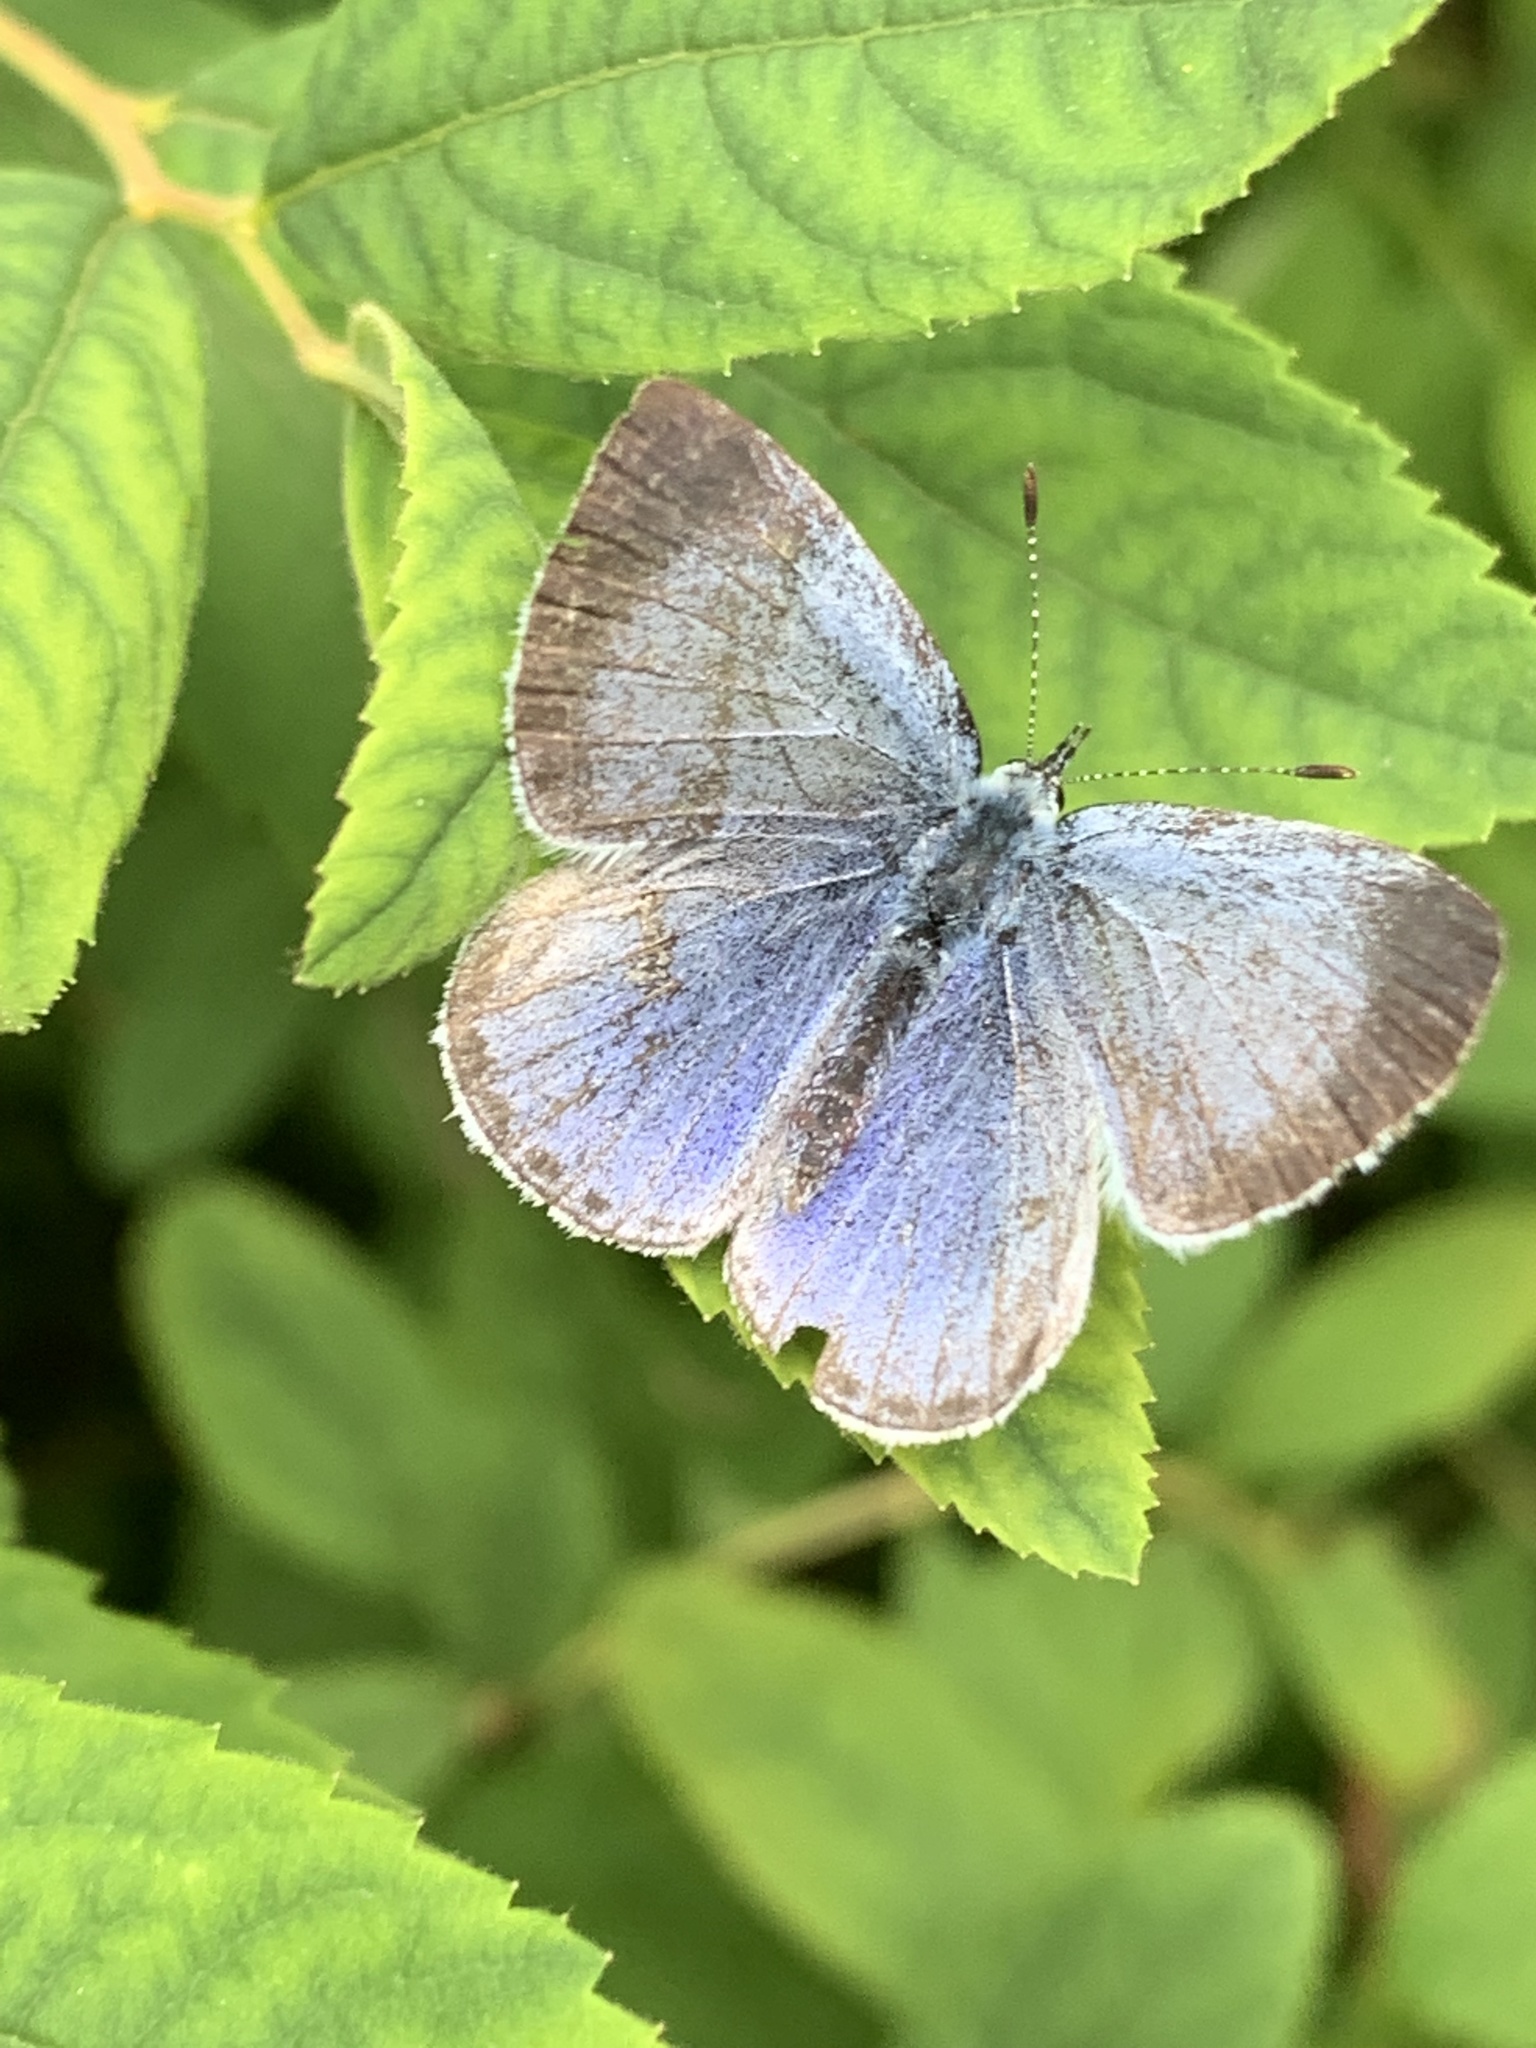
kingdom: Animalia
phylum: Arthropoda
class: Insecta
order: Lepidoptera
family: Lycaenidae
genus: Celastrina
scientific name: Celastrina argiolus
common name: Holly blue
